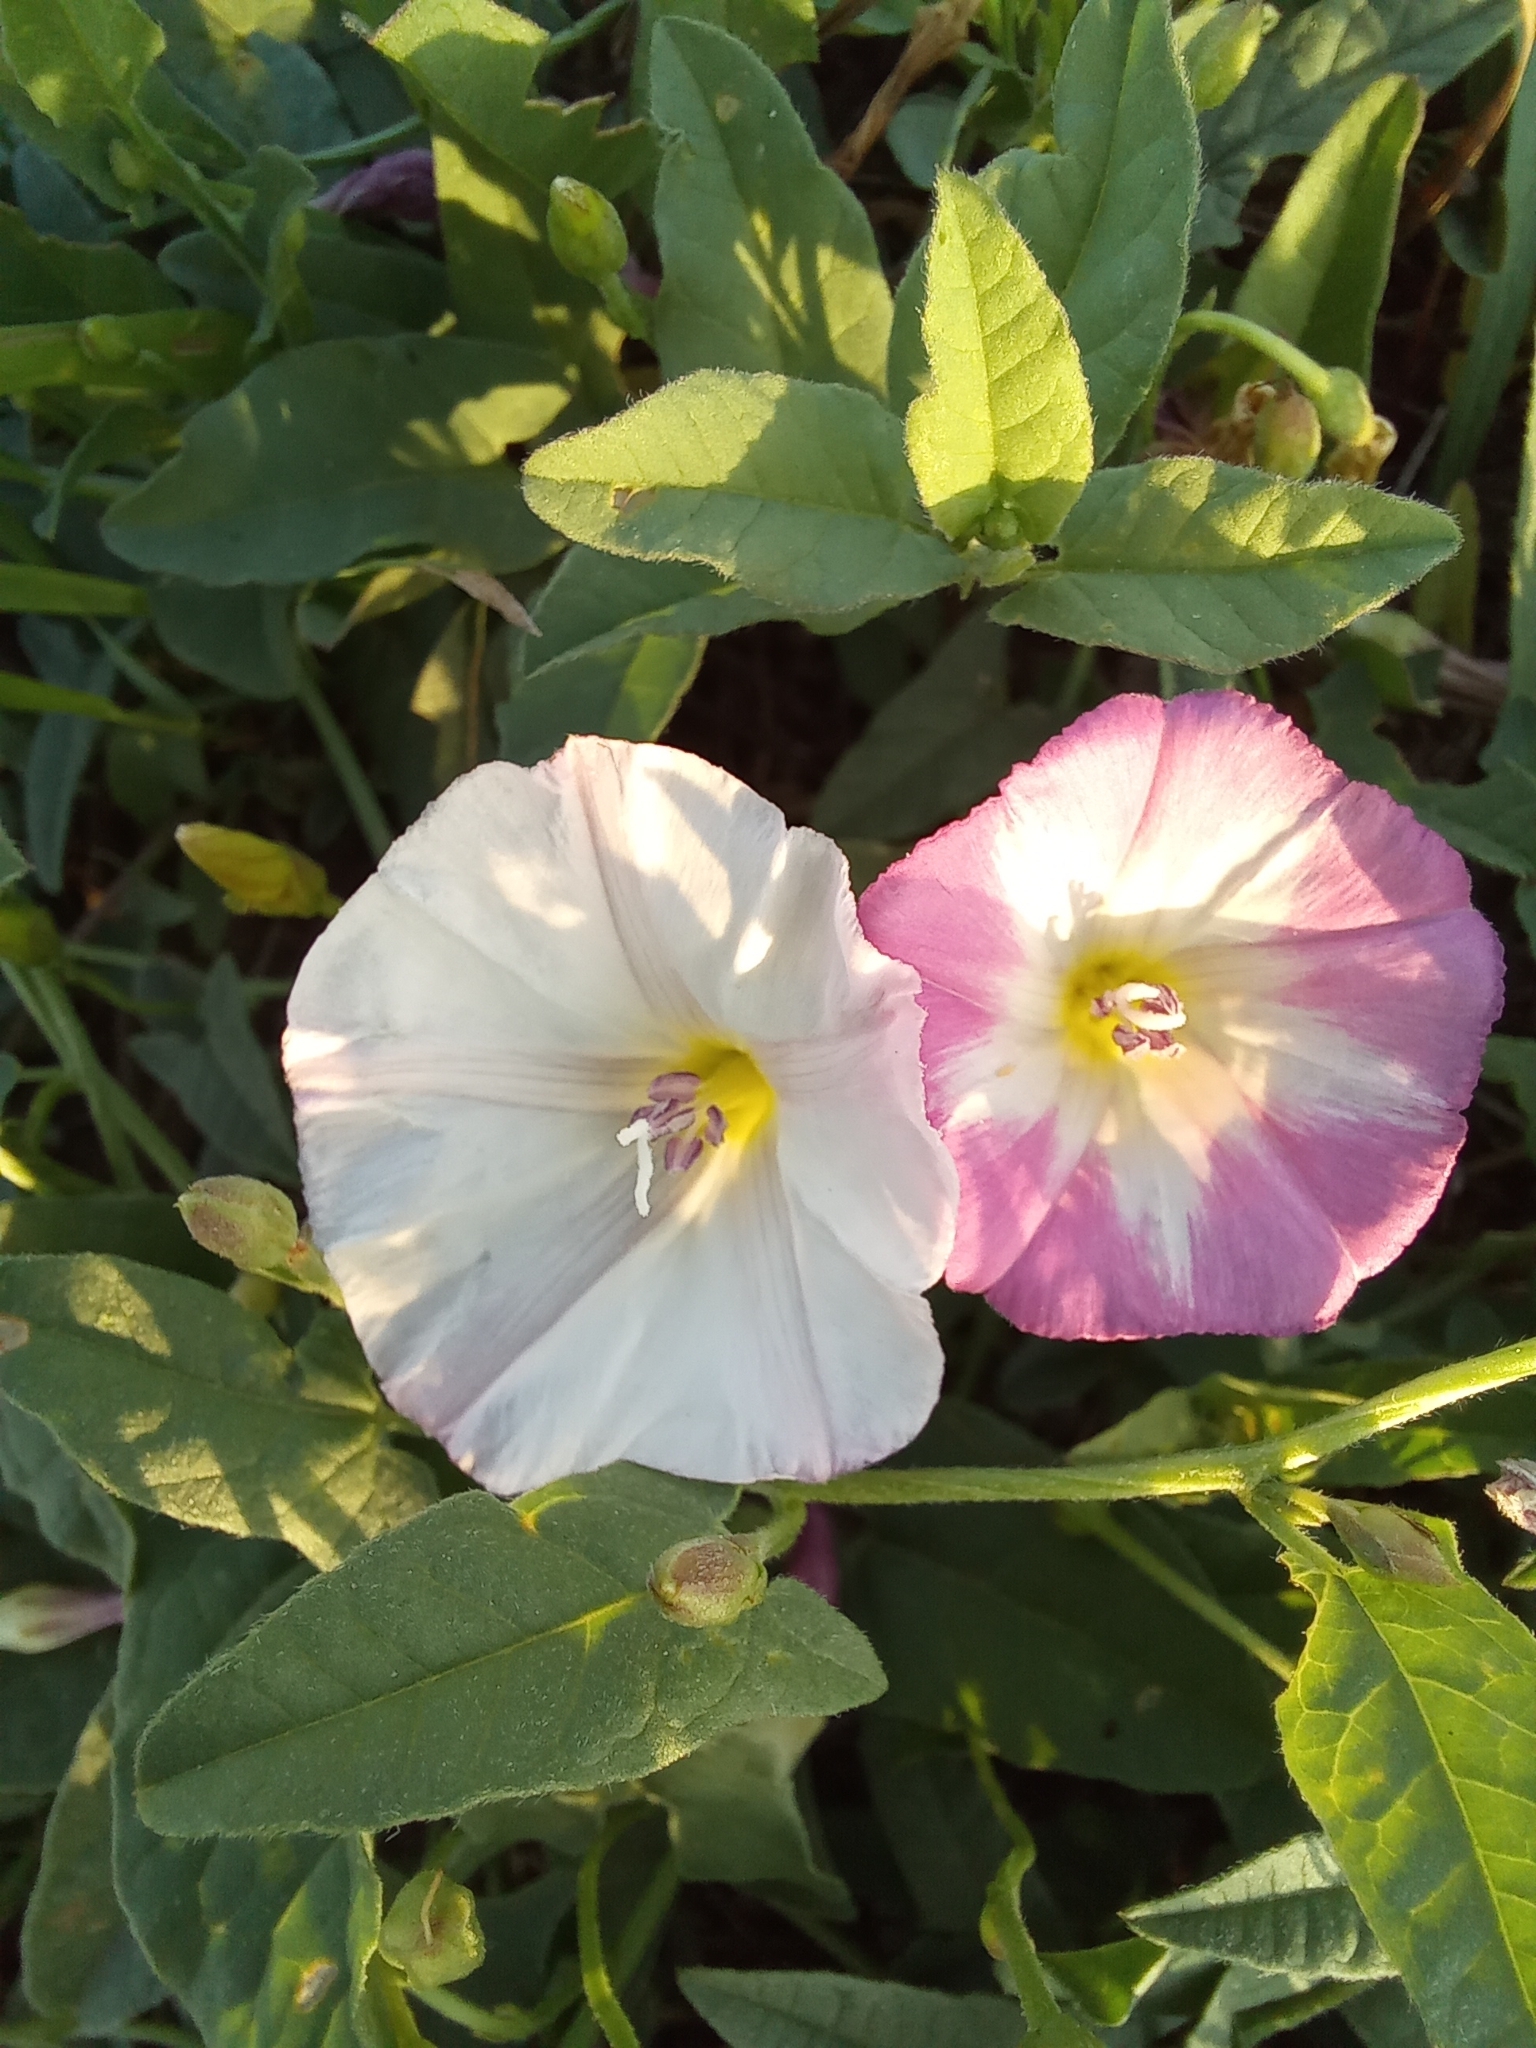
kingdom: Plantae
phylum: Tracheophyta
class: Magnoliopsida
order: Solanales
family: Convolvulaceae
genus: Convolvulus
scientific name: Convolvulus arvensis
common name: Field bindweed
